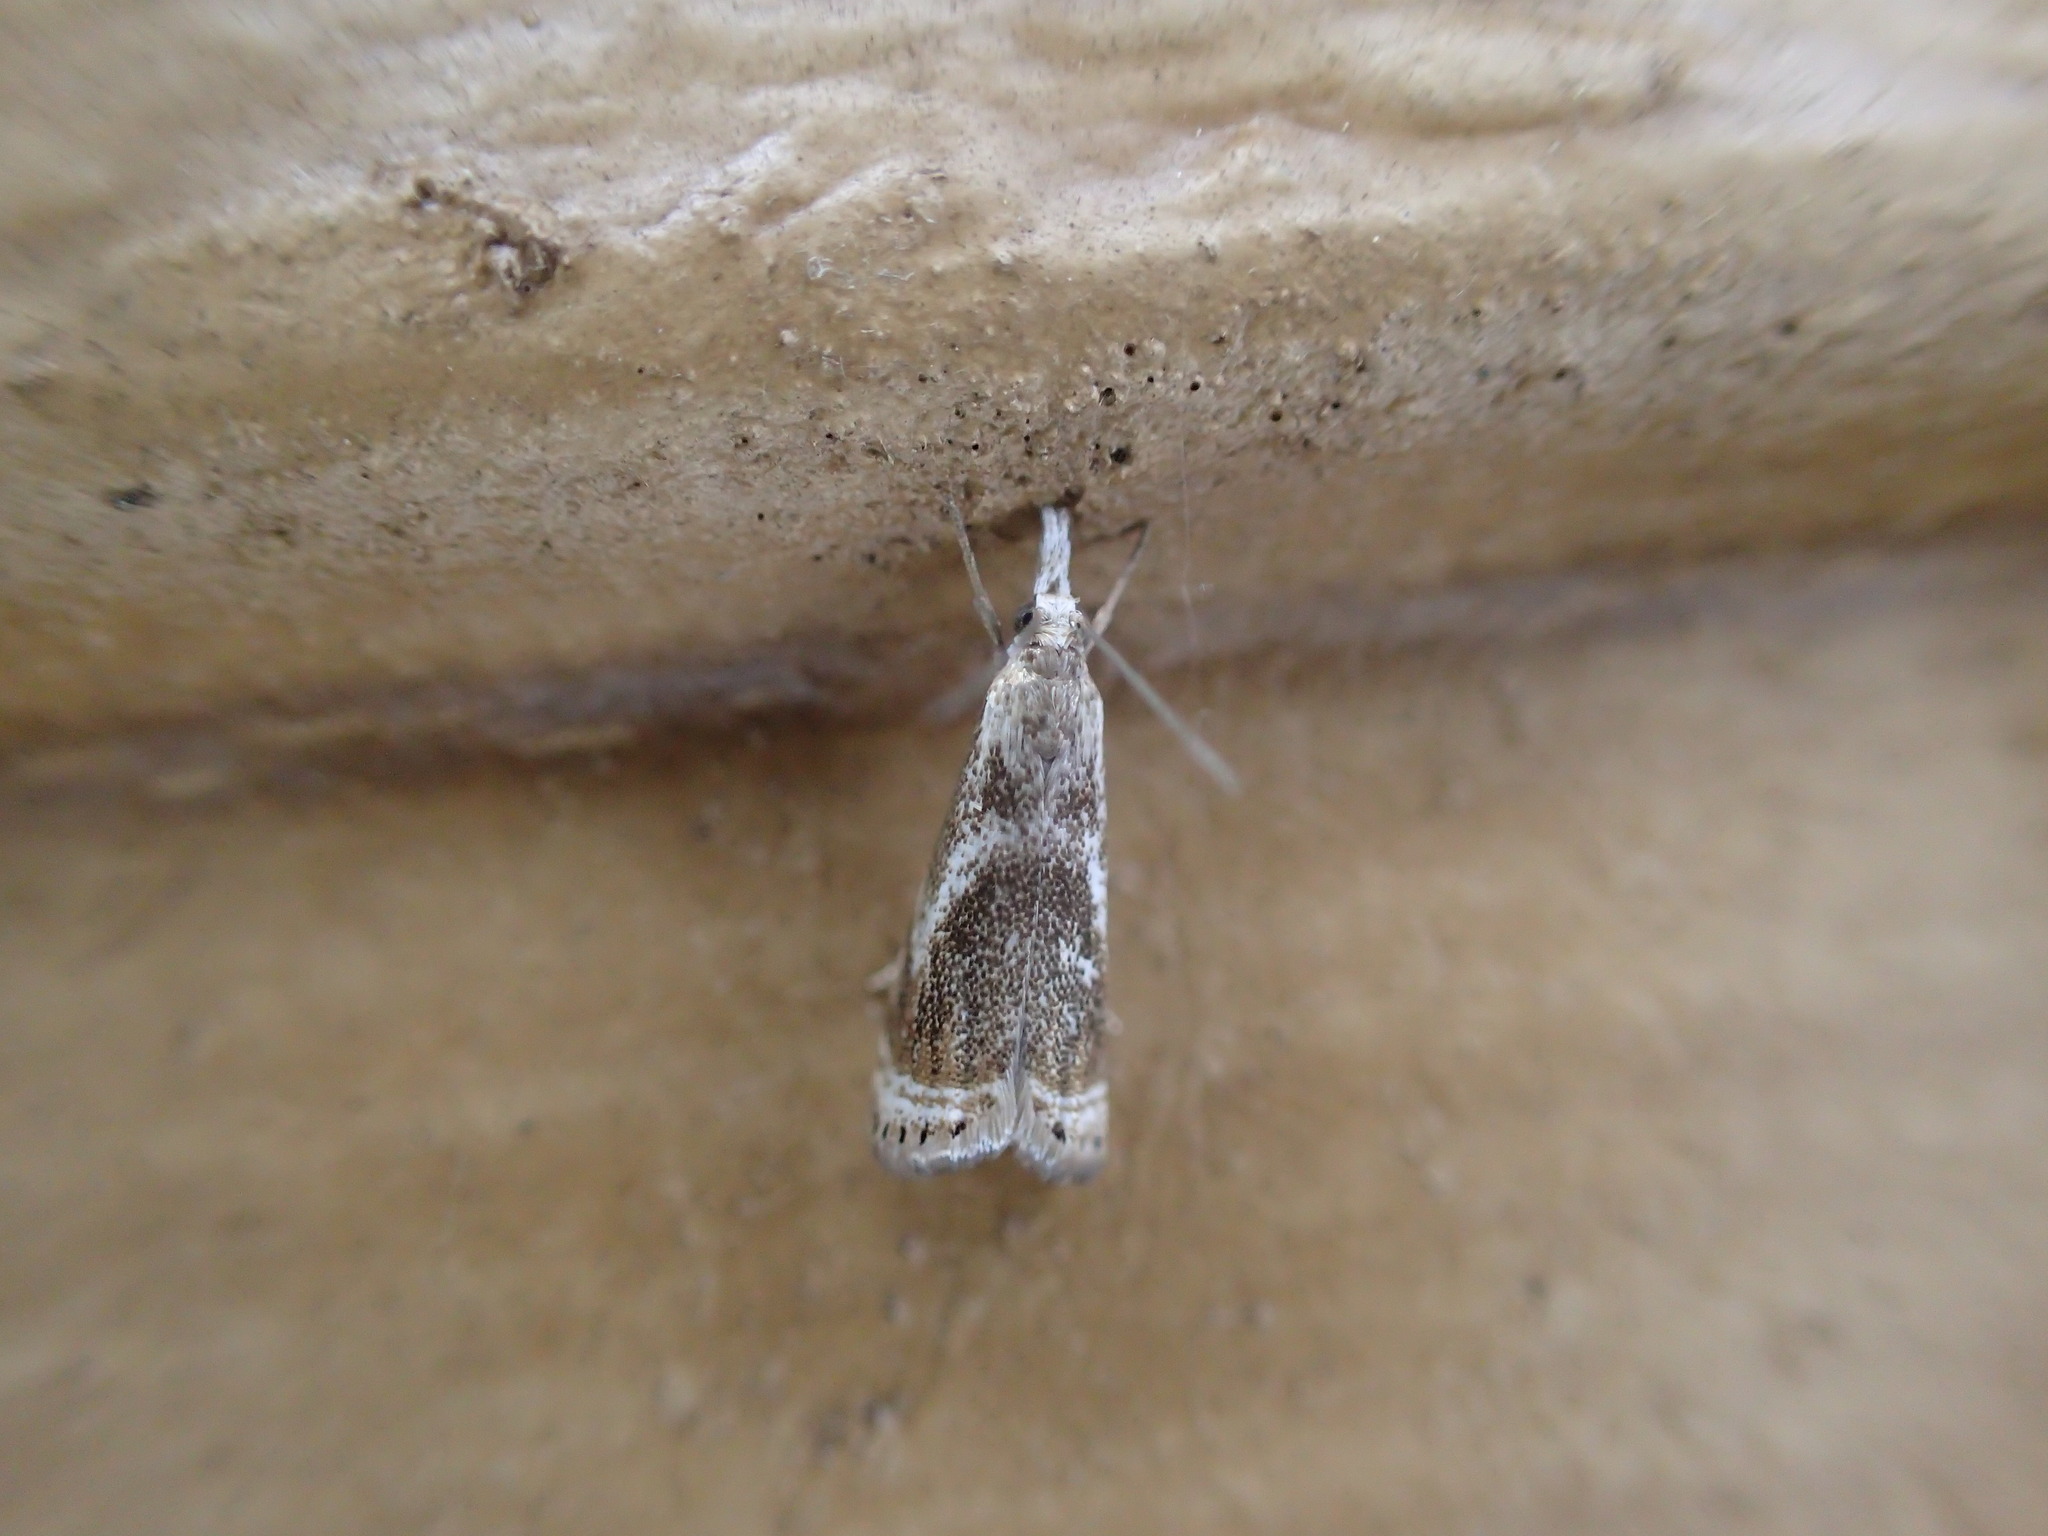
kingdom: Animalia
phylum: Arthropoda
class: Insecta
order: Lepidoptera
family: Crambidae
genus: Microcrambus
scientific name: Microcrambus elegans
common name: Elegant grass-veneer
